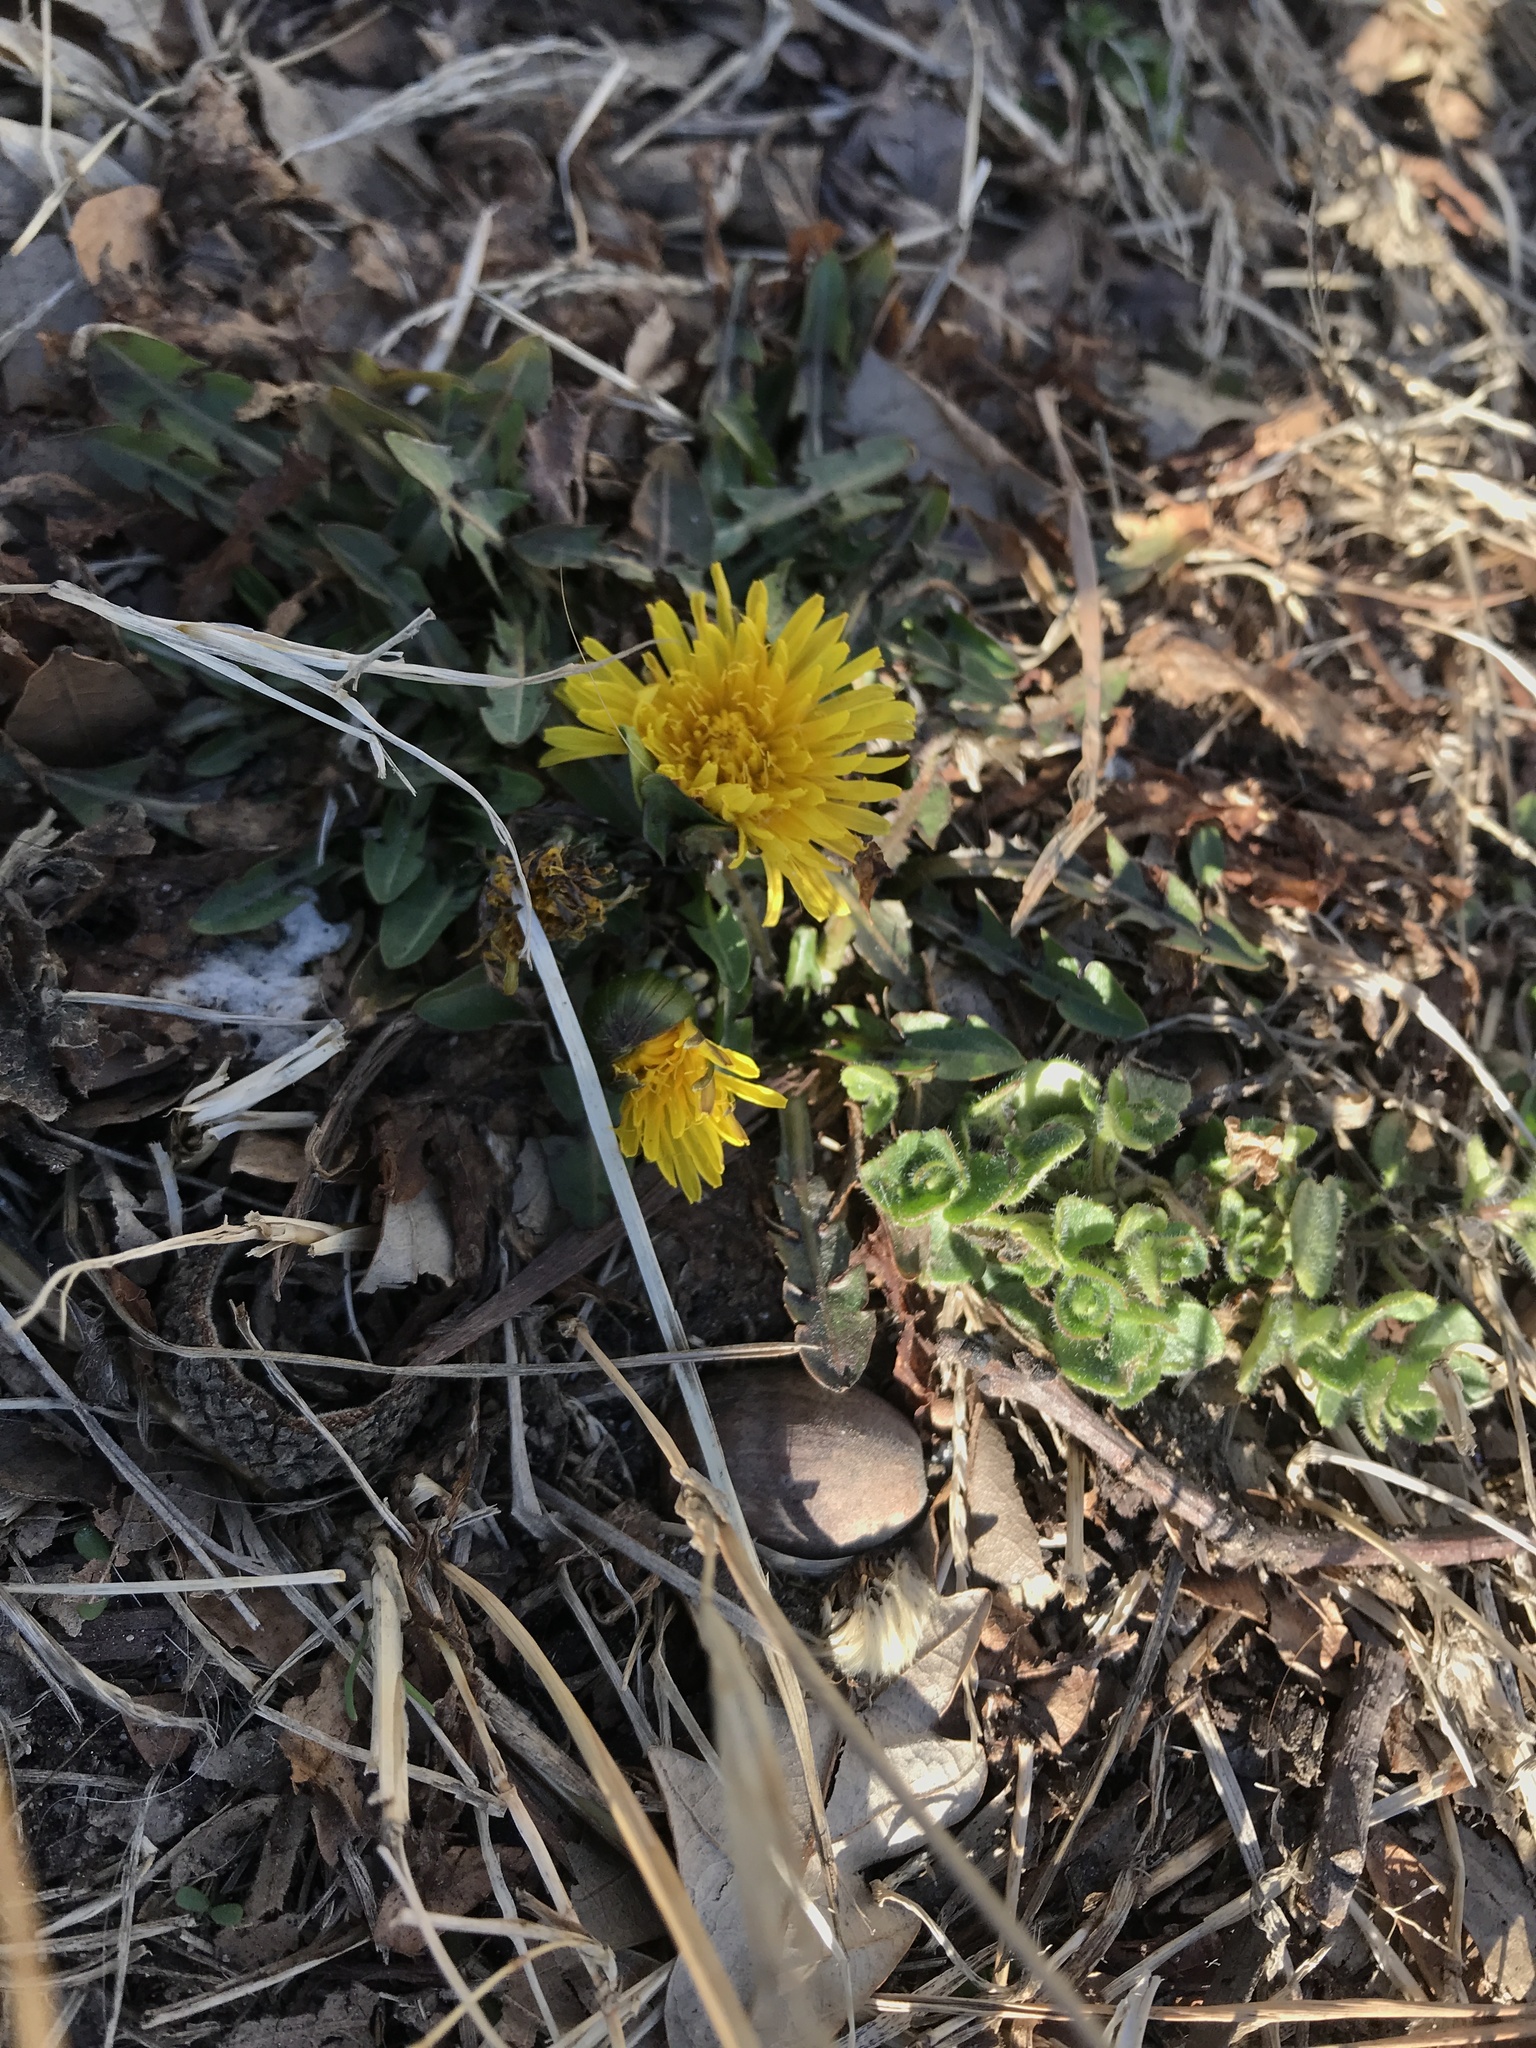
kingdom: Plantae
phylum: Tracheophyta
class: Magnoliopsida
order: Asterales
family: Asteraceae
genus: Taraxacum
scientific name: Taraxacum officinale
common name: Common dandelion
